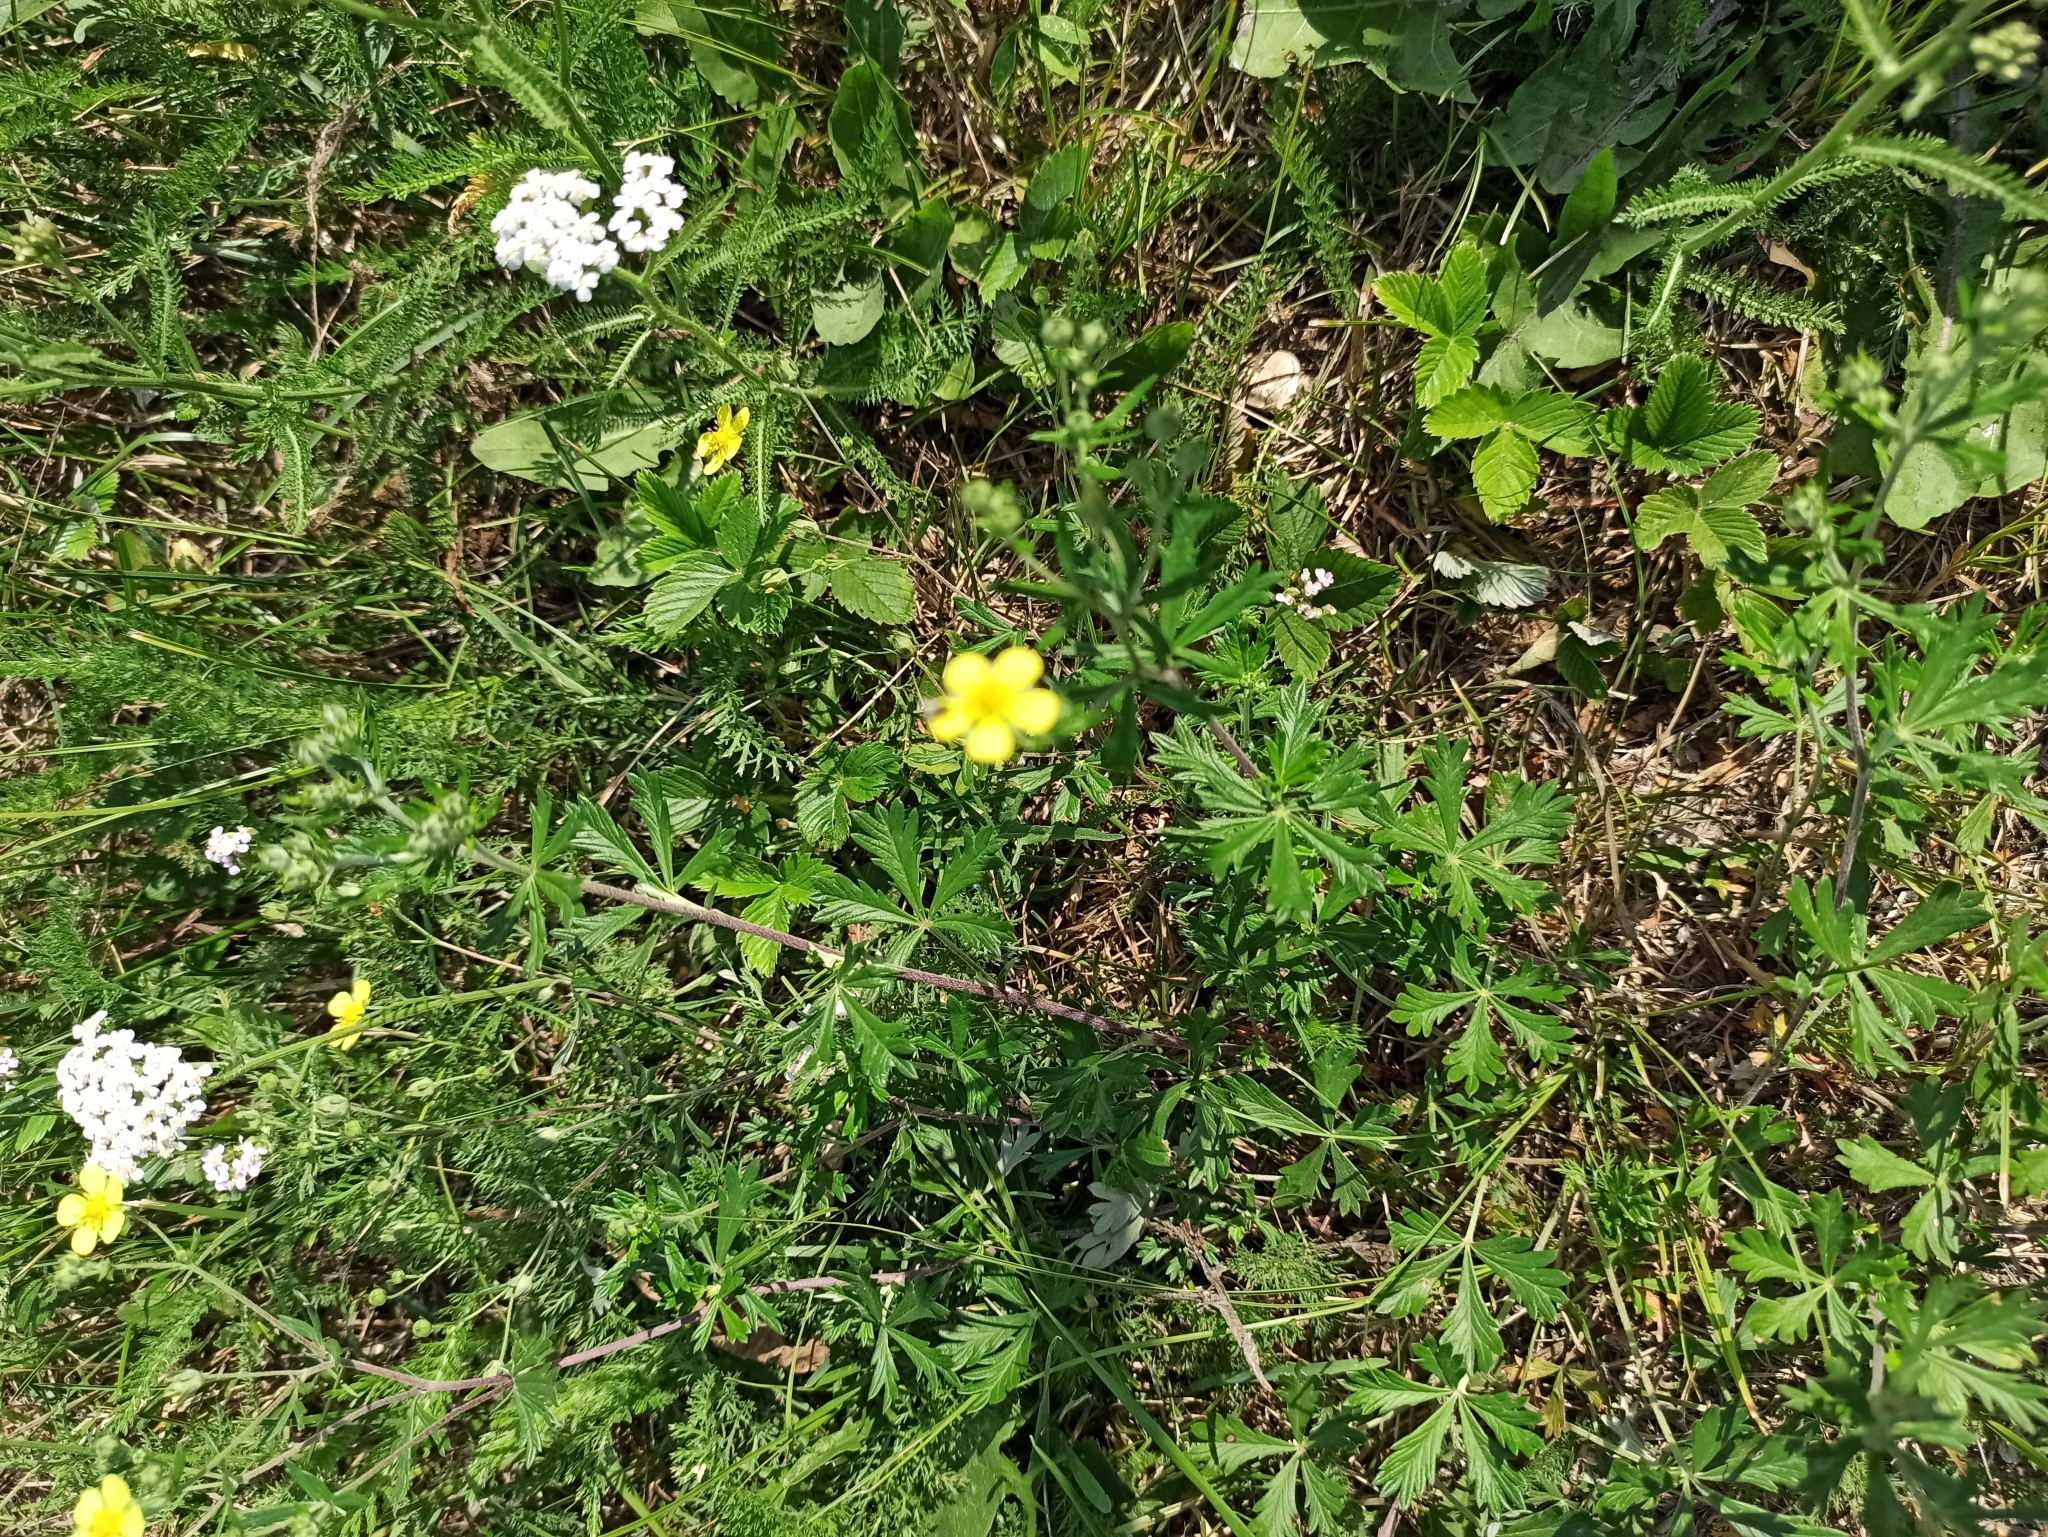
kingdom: Plantae
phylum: Tracheophyta
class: Magnoliopsida
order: Rosales
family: Rosaceae
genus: Potentilla
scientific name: Potentilla argentea
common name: Hoary cinquefoil
